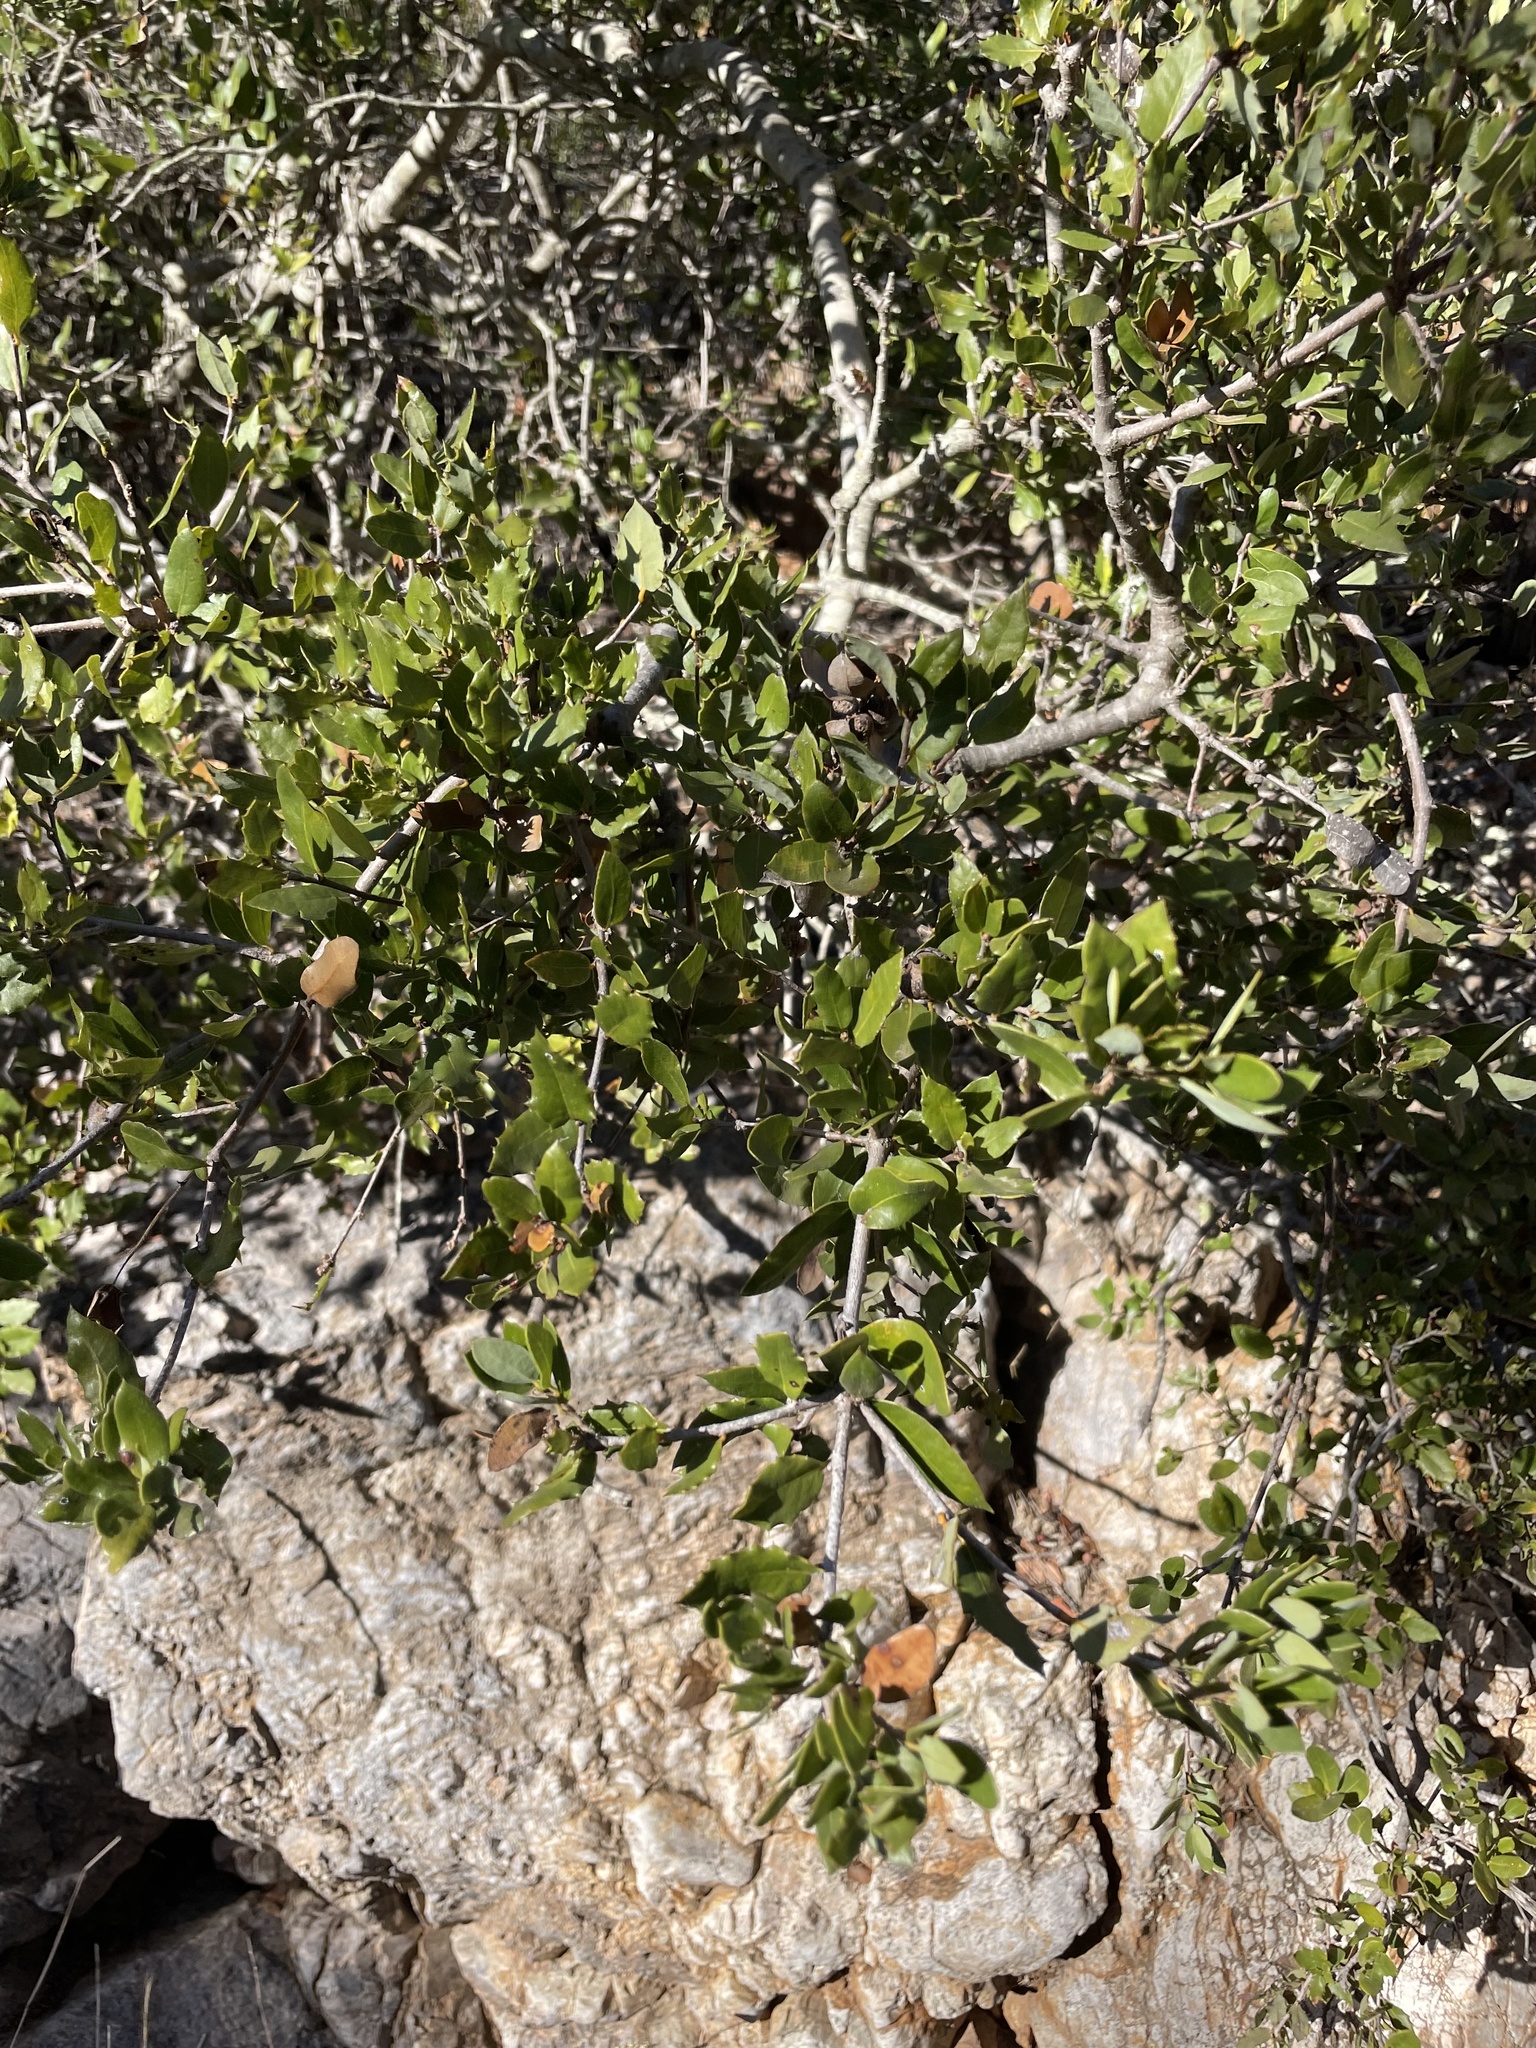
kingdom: Plantae
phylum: Tracheophyta
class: Magnoliopsida
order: Fagales
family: Fagaceae
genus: Quercus
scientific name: Quercus cedrosensis
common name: Cedros island oak
